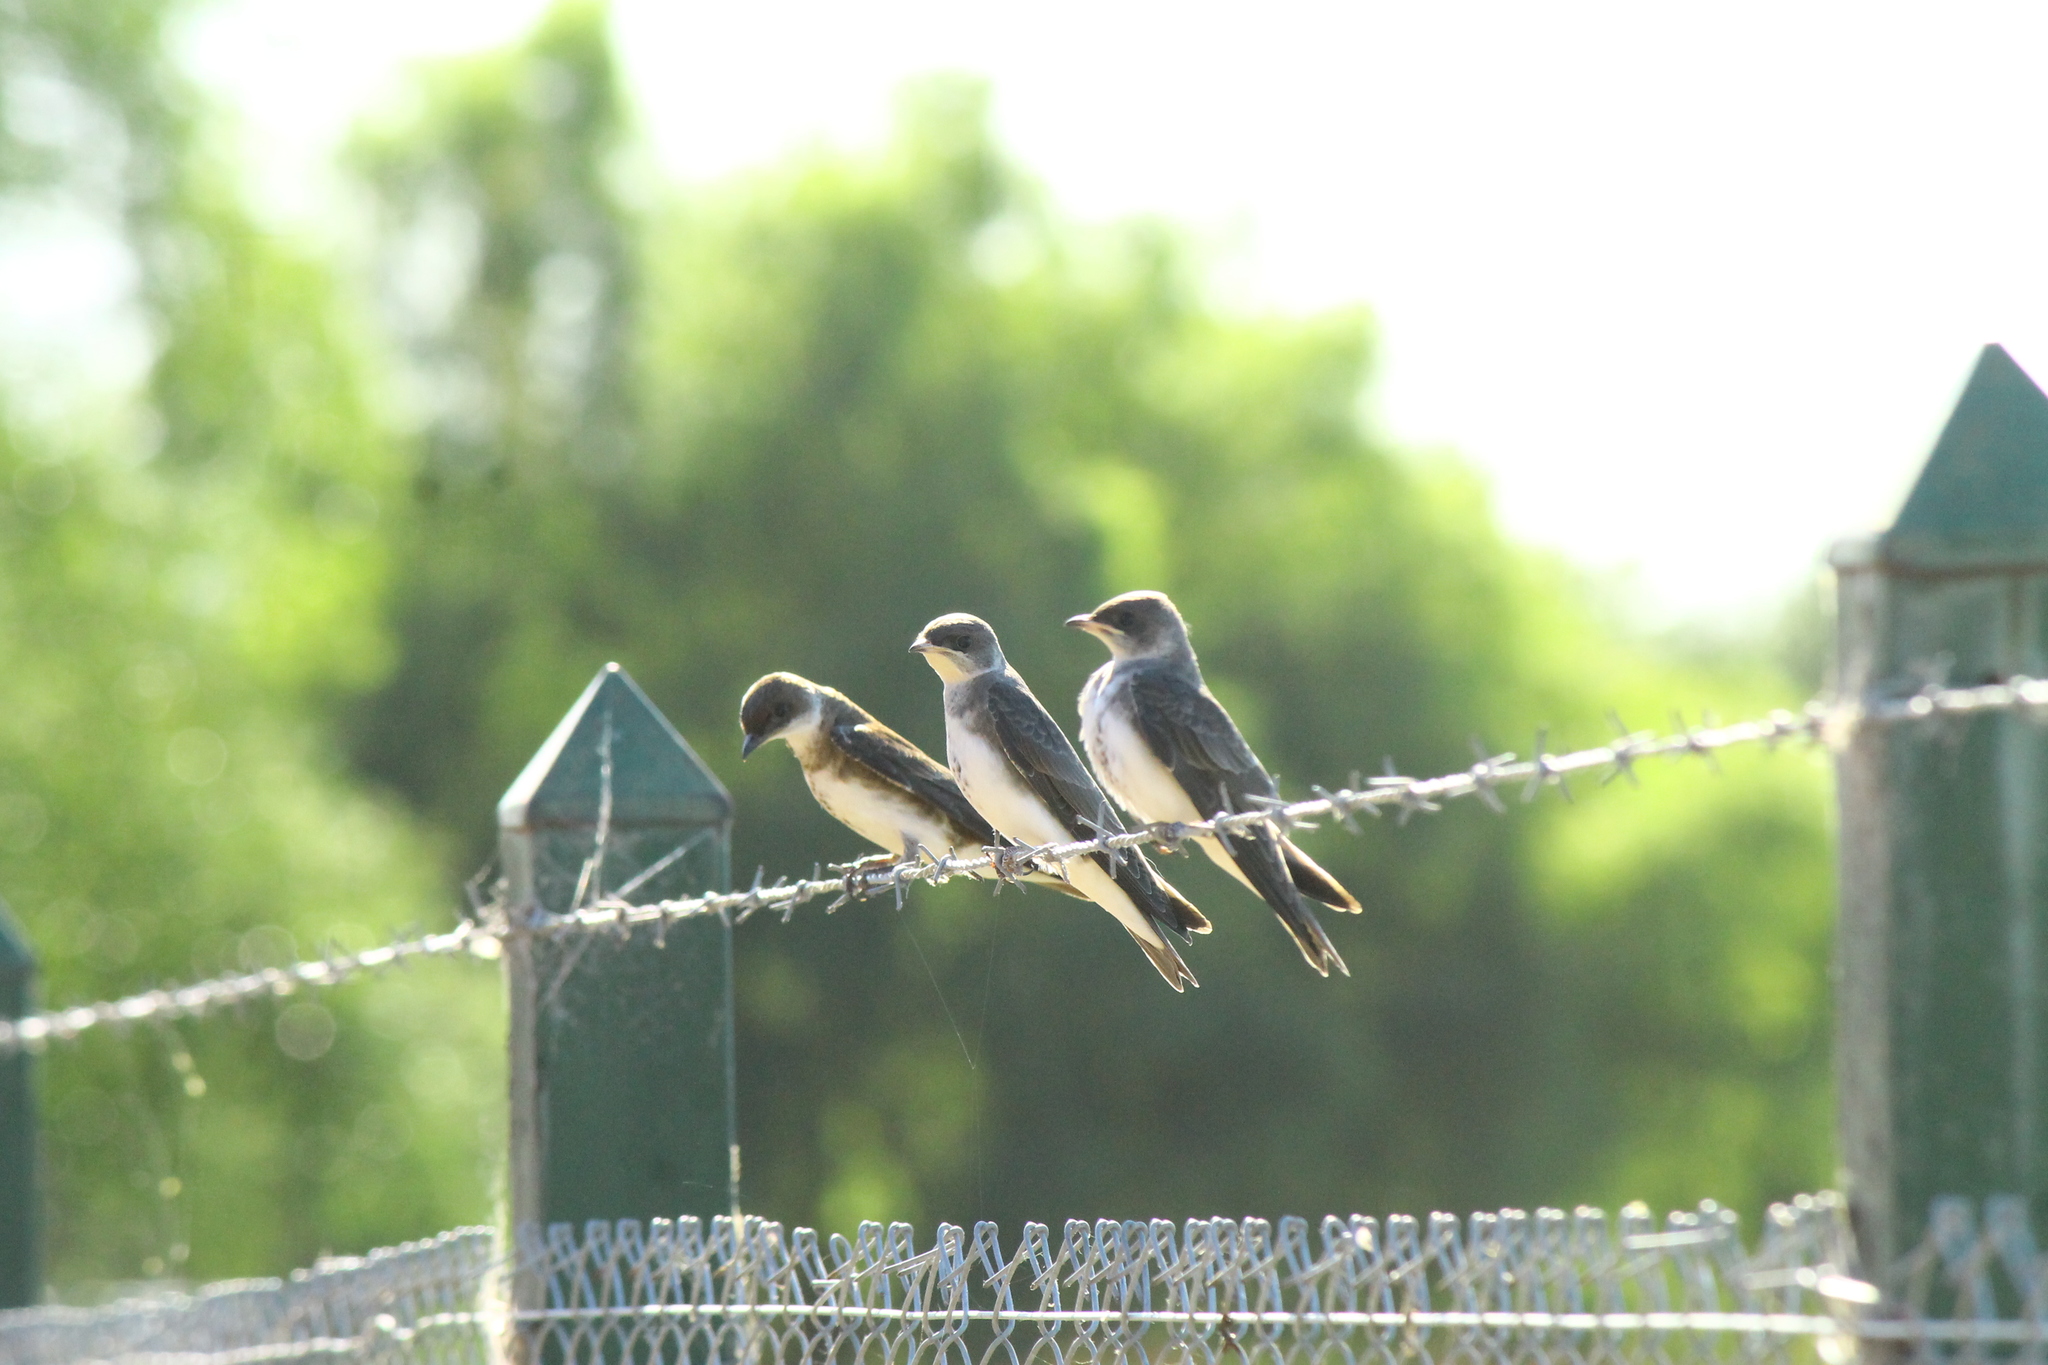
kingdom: Animalia
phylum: Chordata
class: Aves
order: Passeriformes
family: Hirundinidae
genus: Progne
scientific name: Progne tapera
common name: Brown-chested martin
